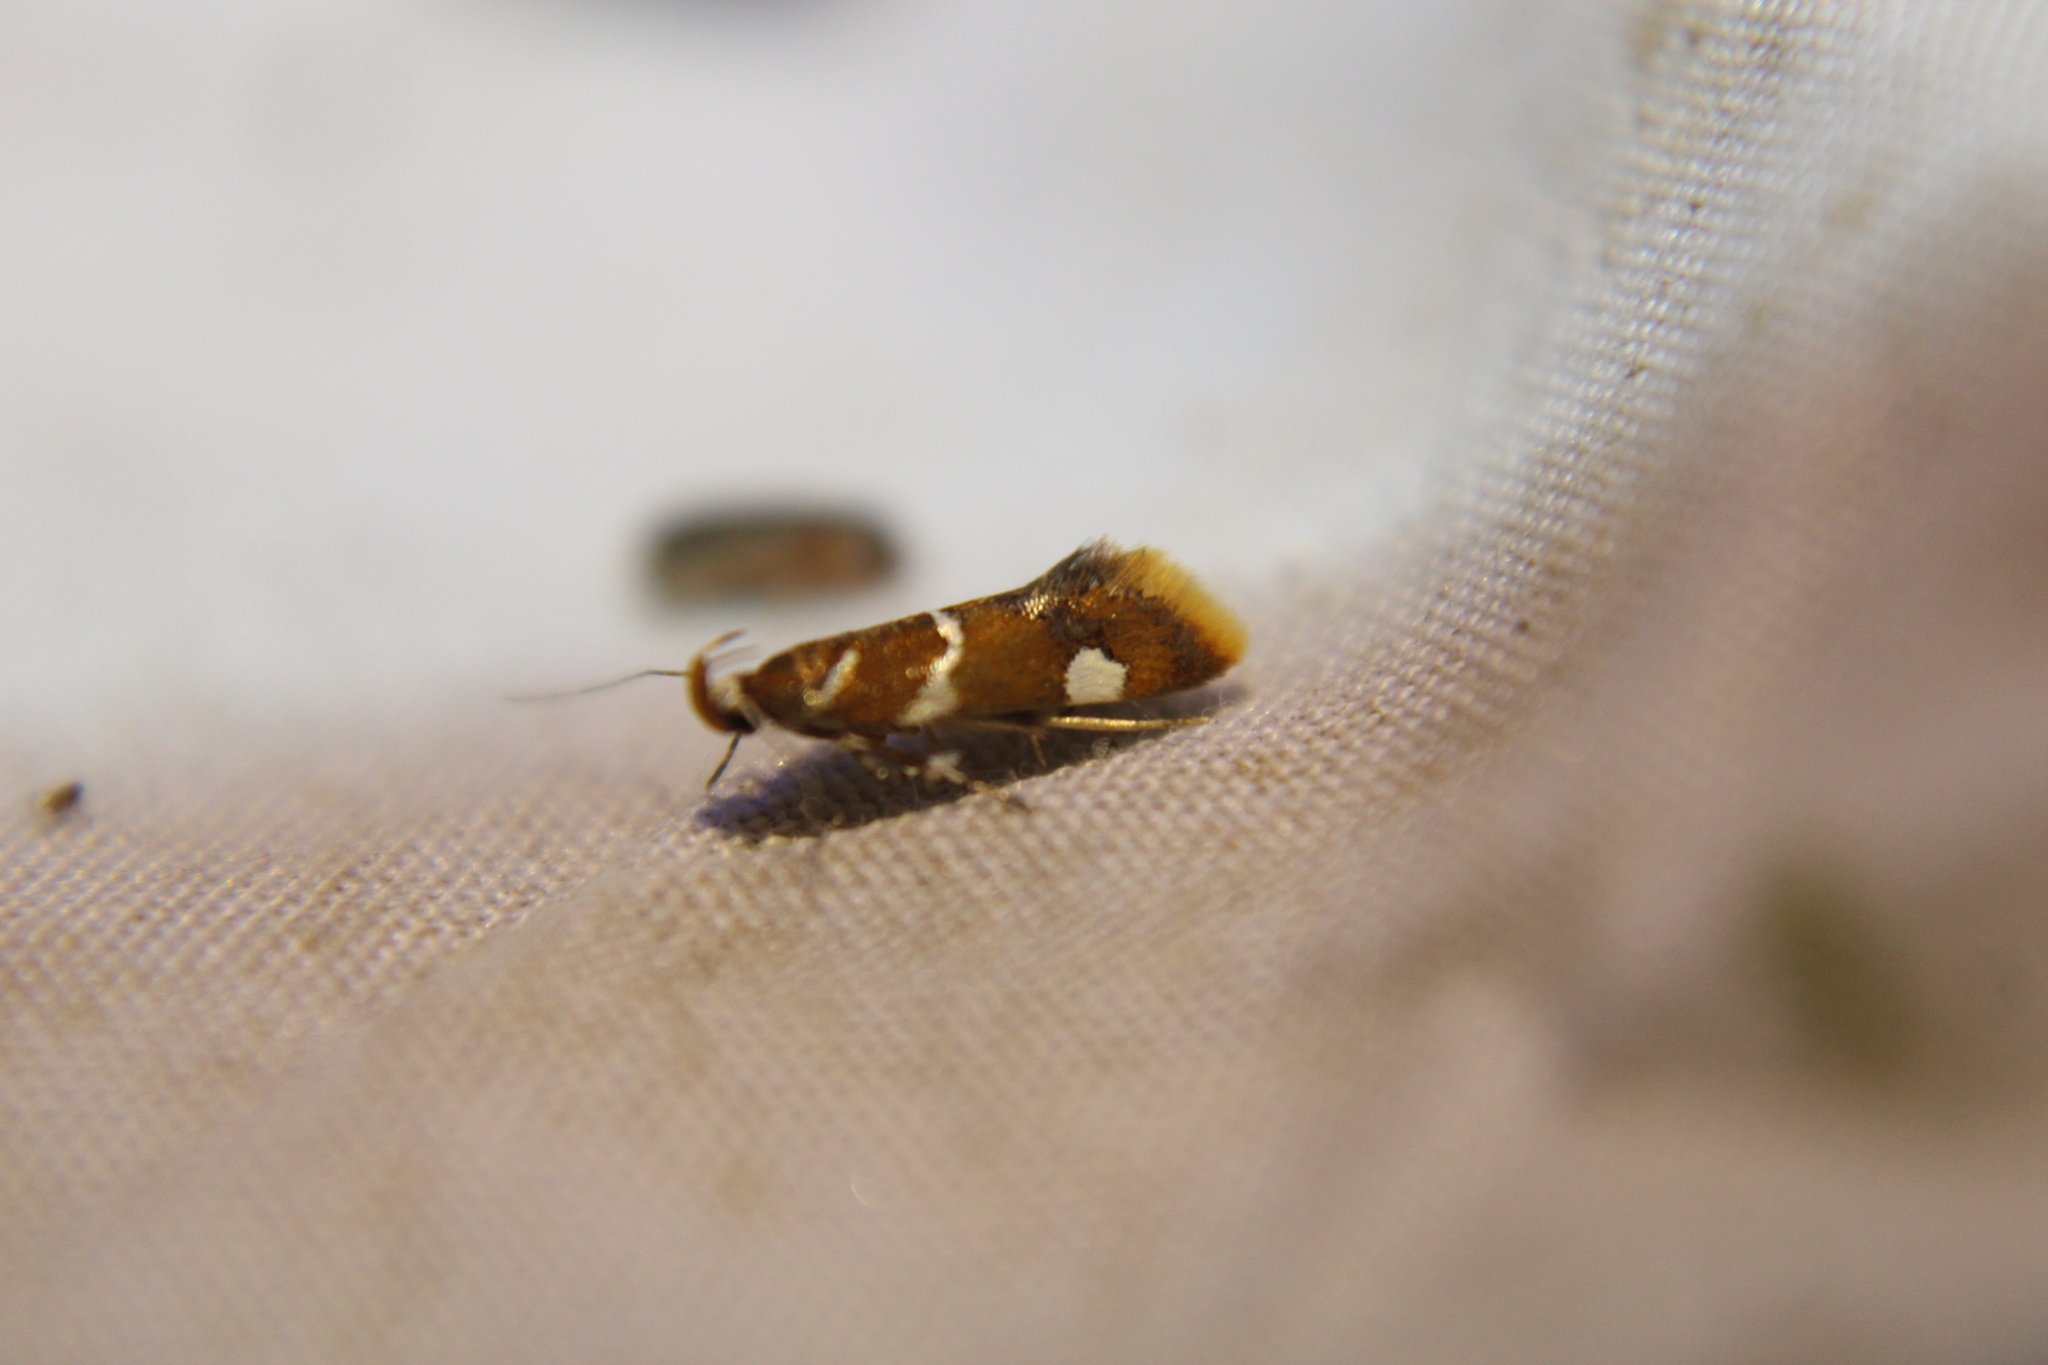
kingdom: Animalia
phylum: Arthropoda
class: Insecta
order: Lepidoptera
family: Oecophoridae
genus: Promalactis
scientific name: Promalactis suzukiella
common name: Moth
